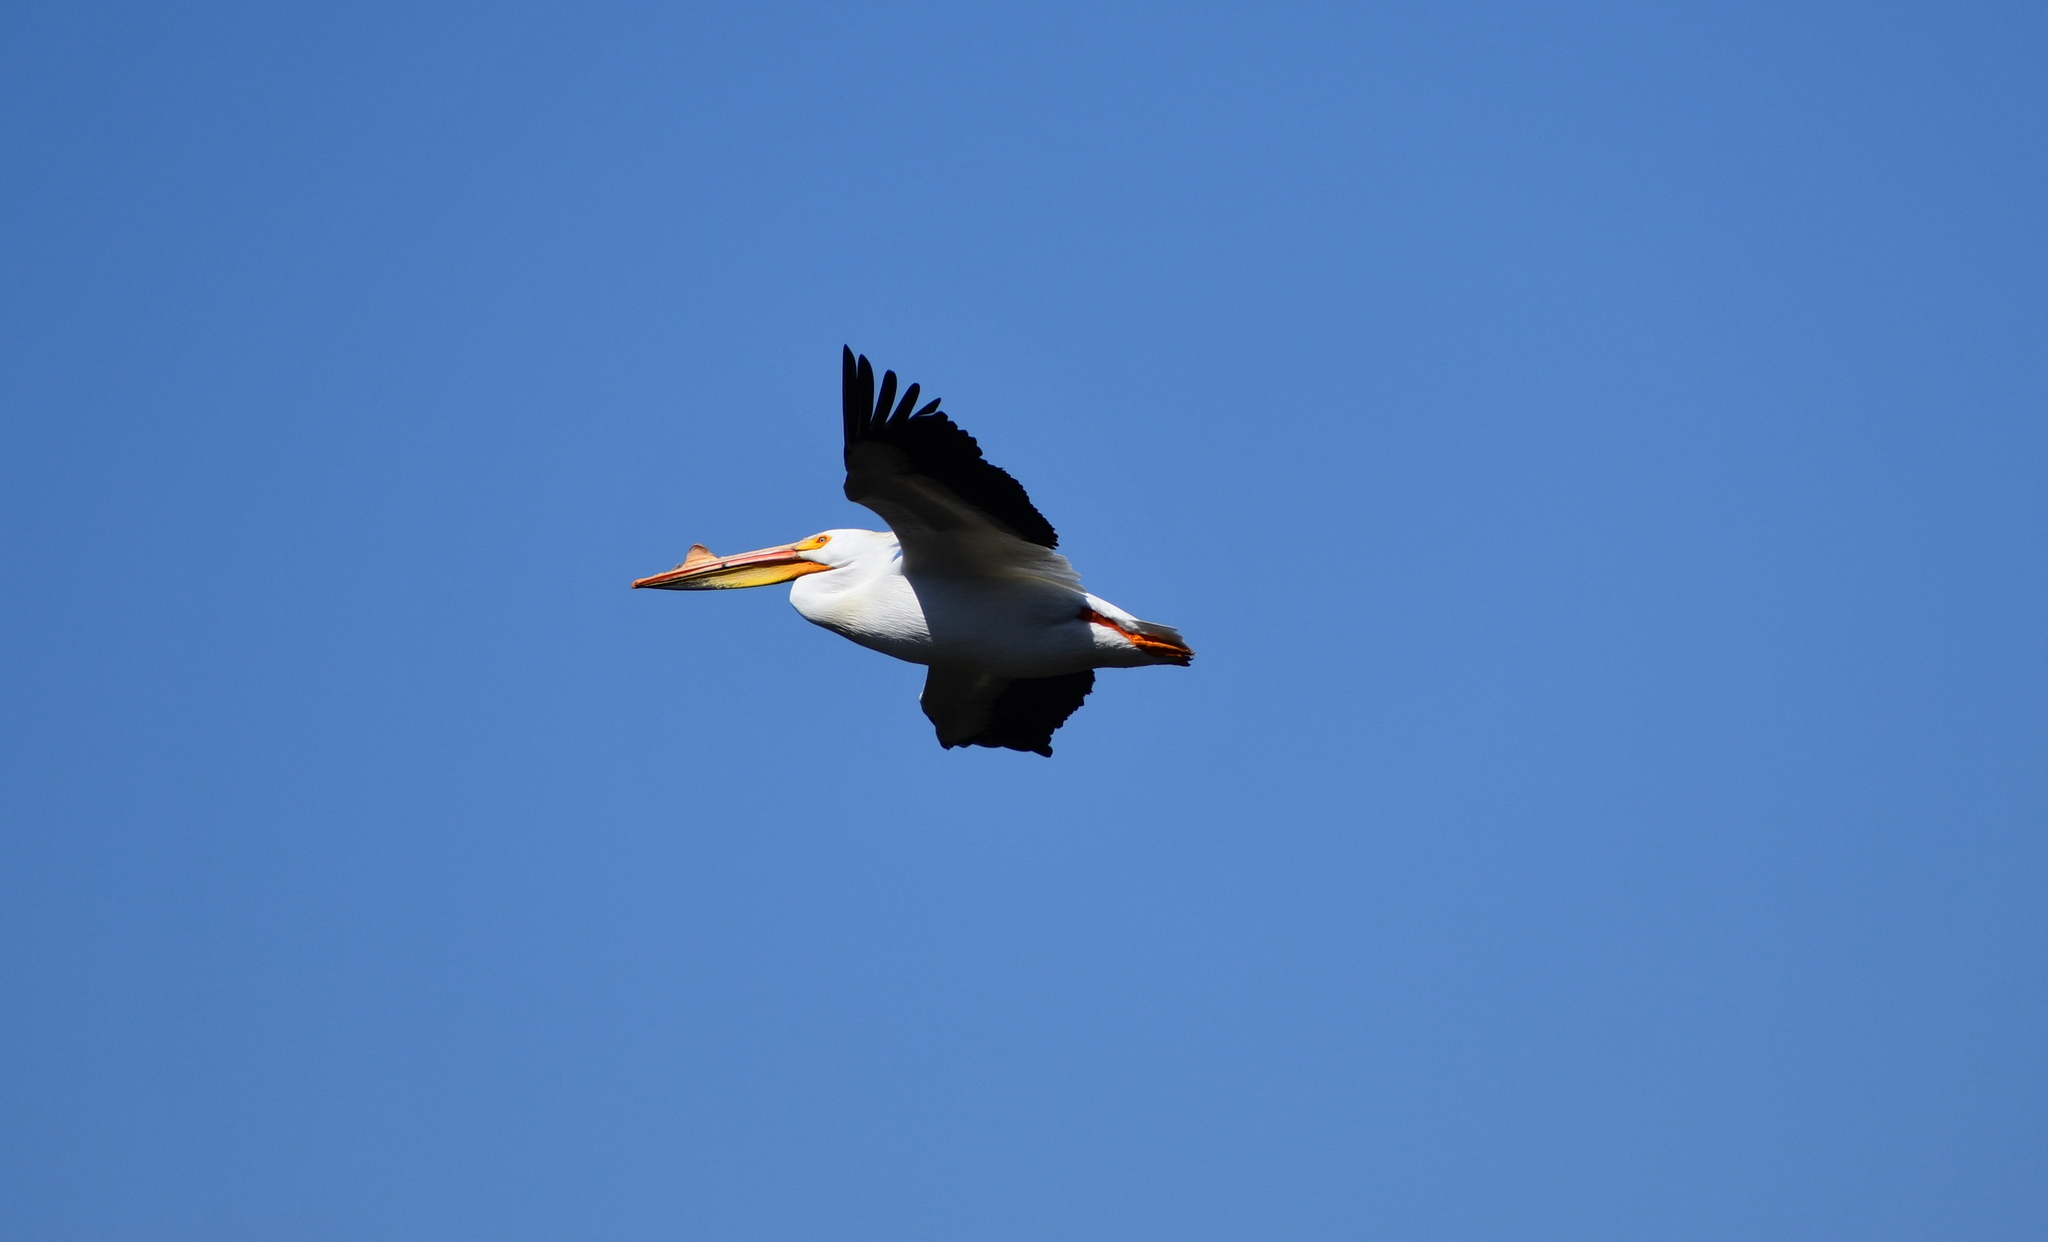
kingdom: Animalia
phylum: Chordata
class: Aves
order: Pelecaniformes
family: Pelecanidae
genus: Pelecanus
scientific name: Pelecanus erythrorhynchos
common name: American white pelican
